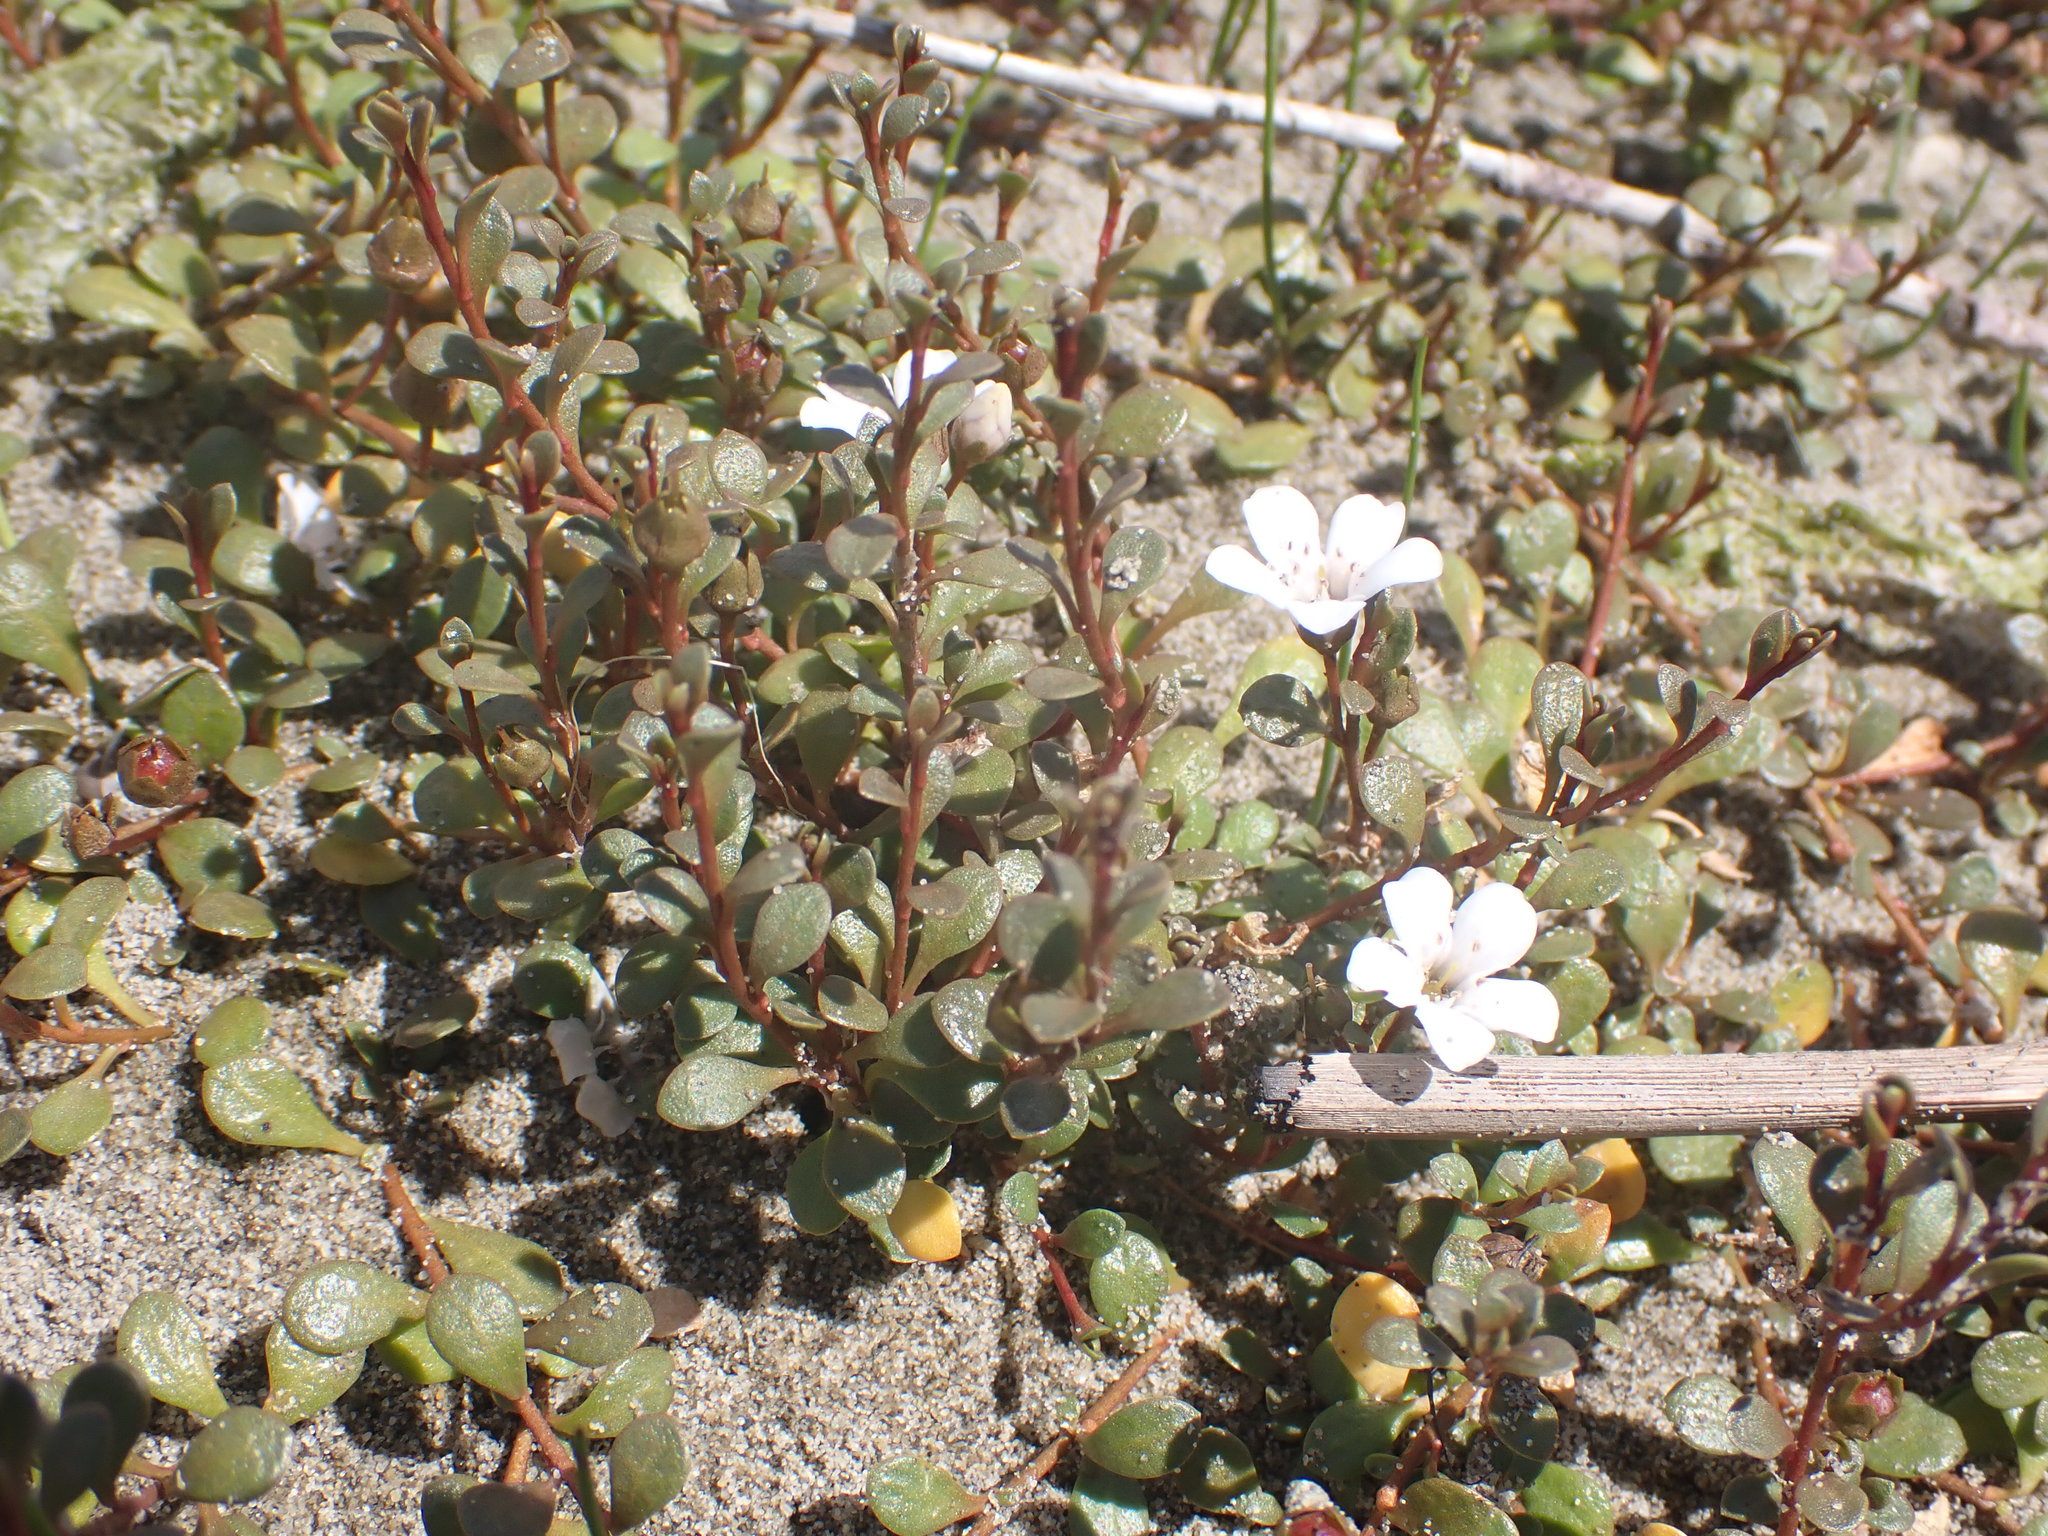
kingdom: Plantae
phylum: Tracheophyta
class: Magnoliopsida
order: Ericales
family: Primulaceae
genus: Samolus
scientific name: Samolus repens
